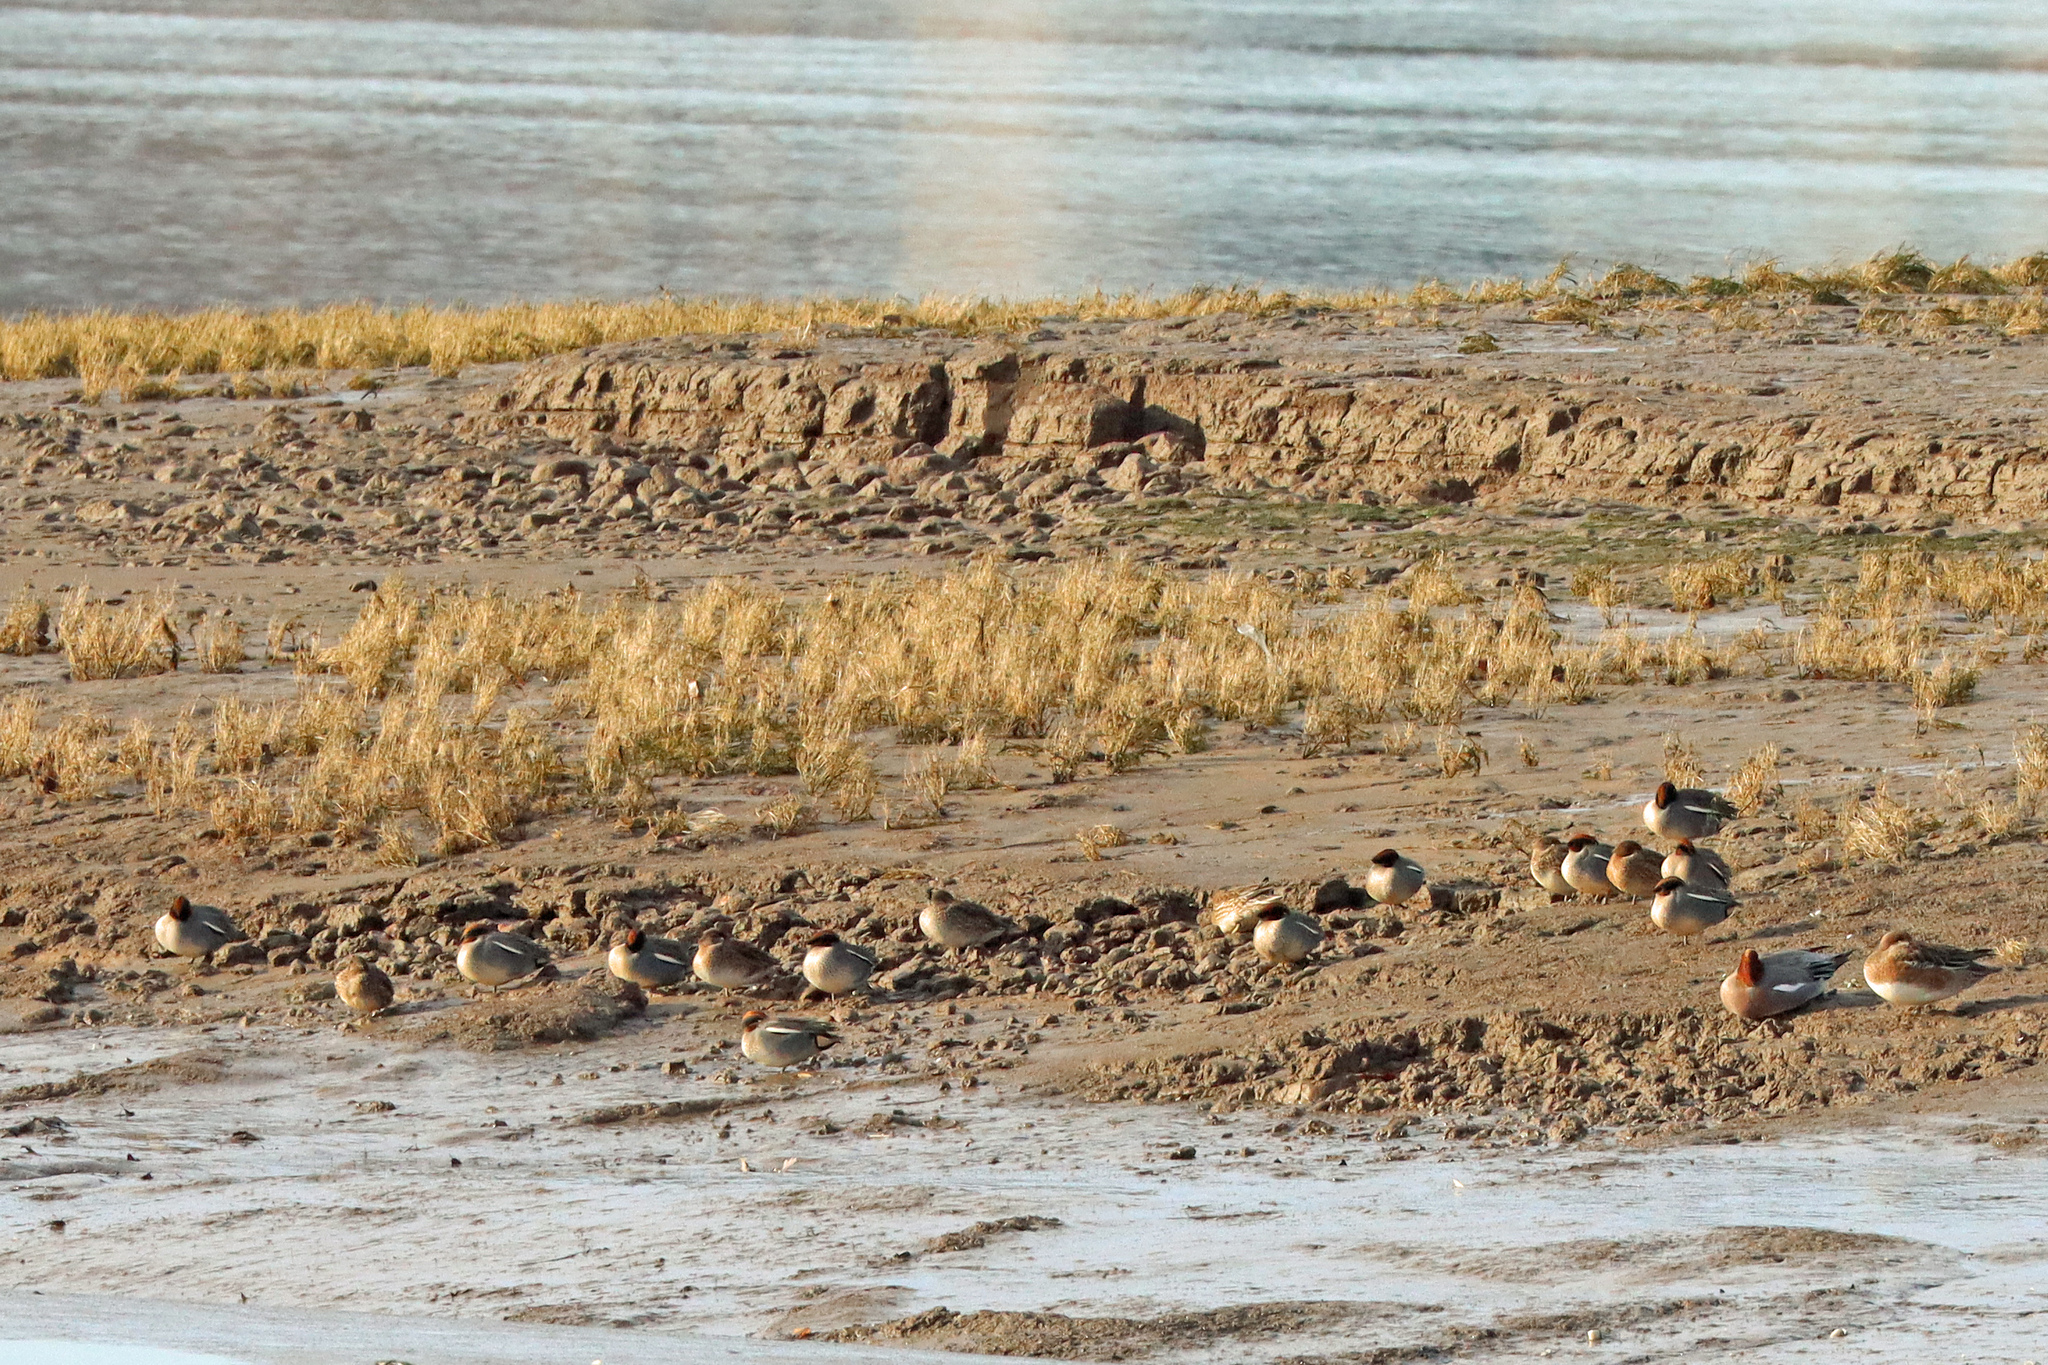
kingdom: Animalia
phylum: Chordata
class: Aves
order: Anseriformes
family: Anatidae
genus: Anas
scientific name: Anas crecca
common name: Eurasian teal
